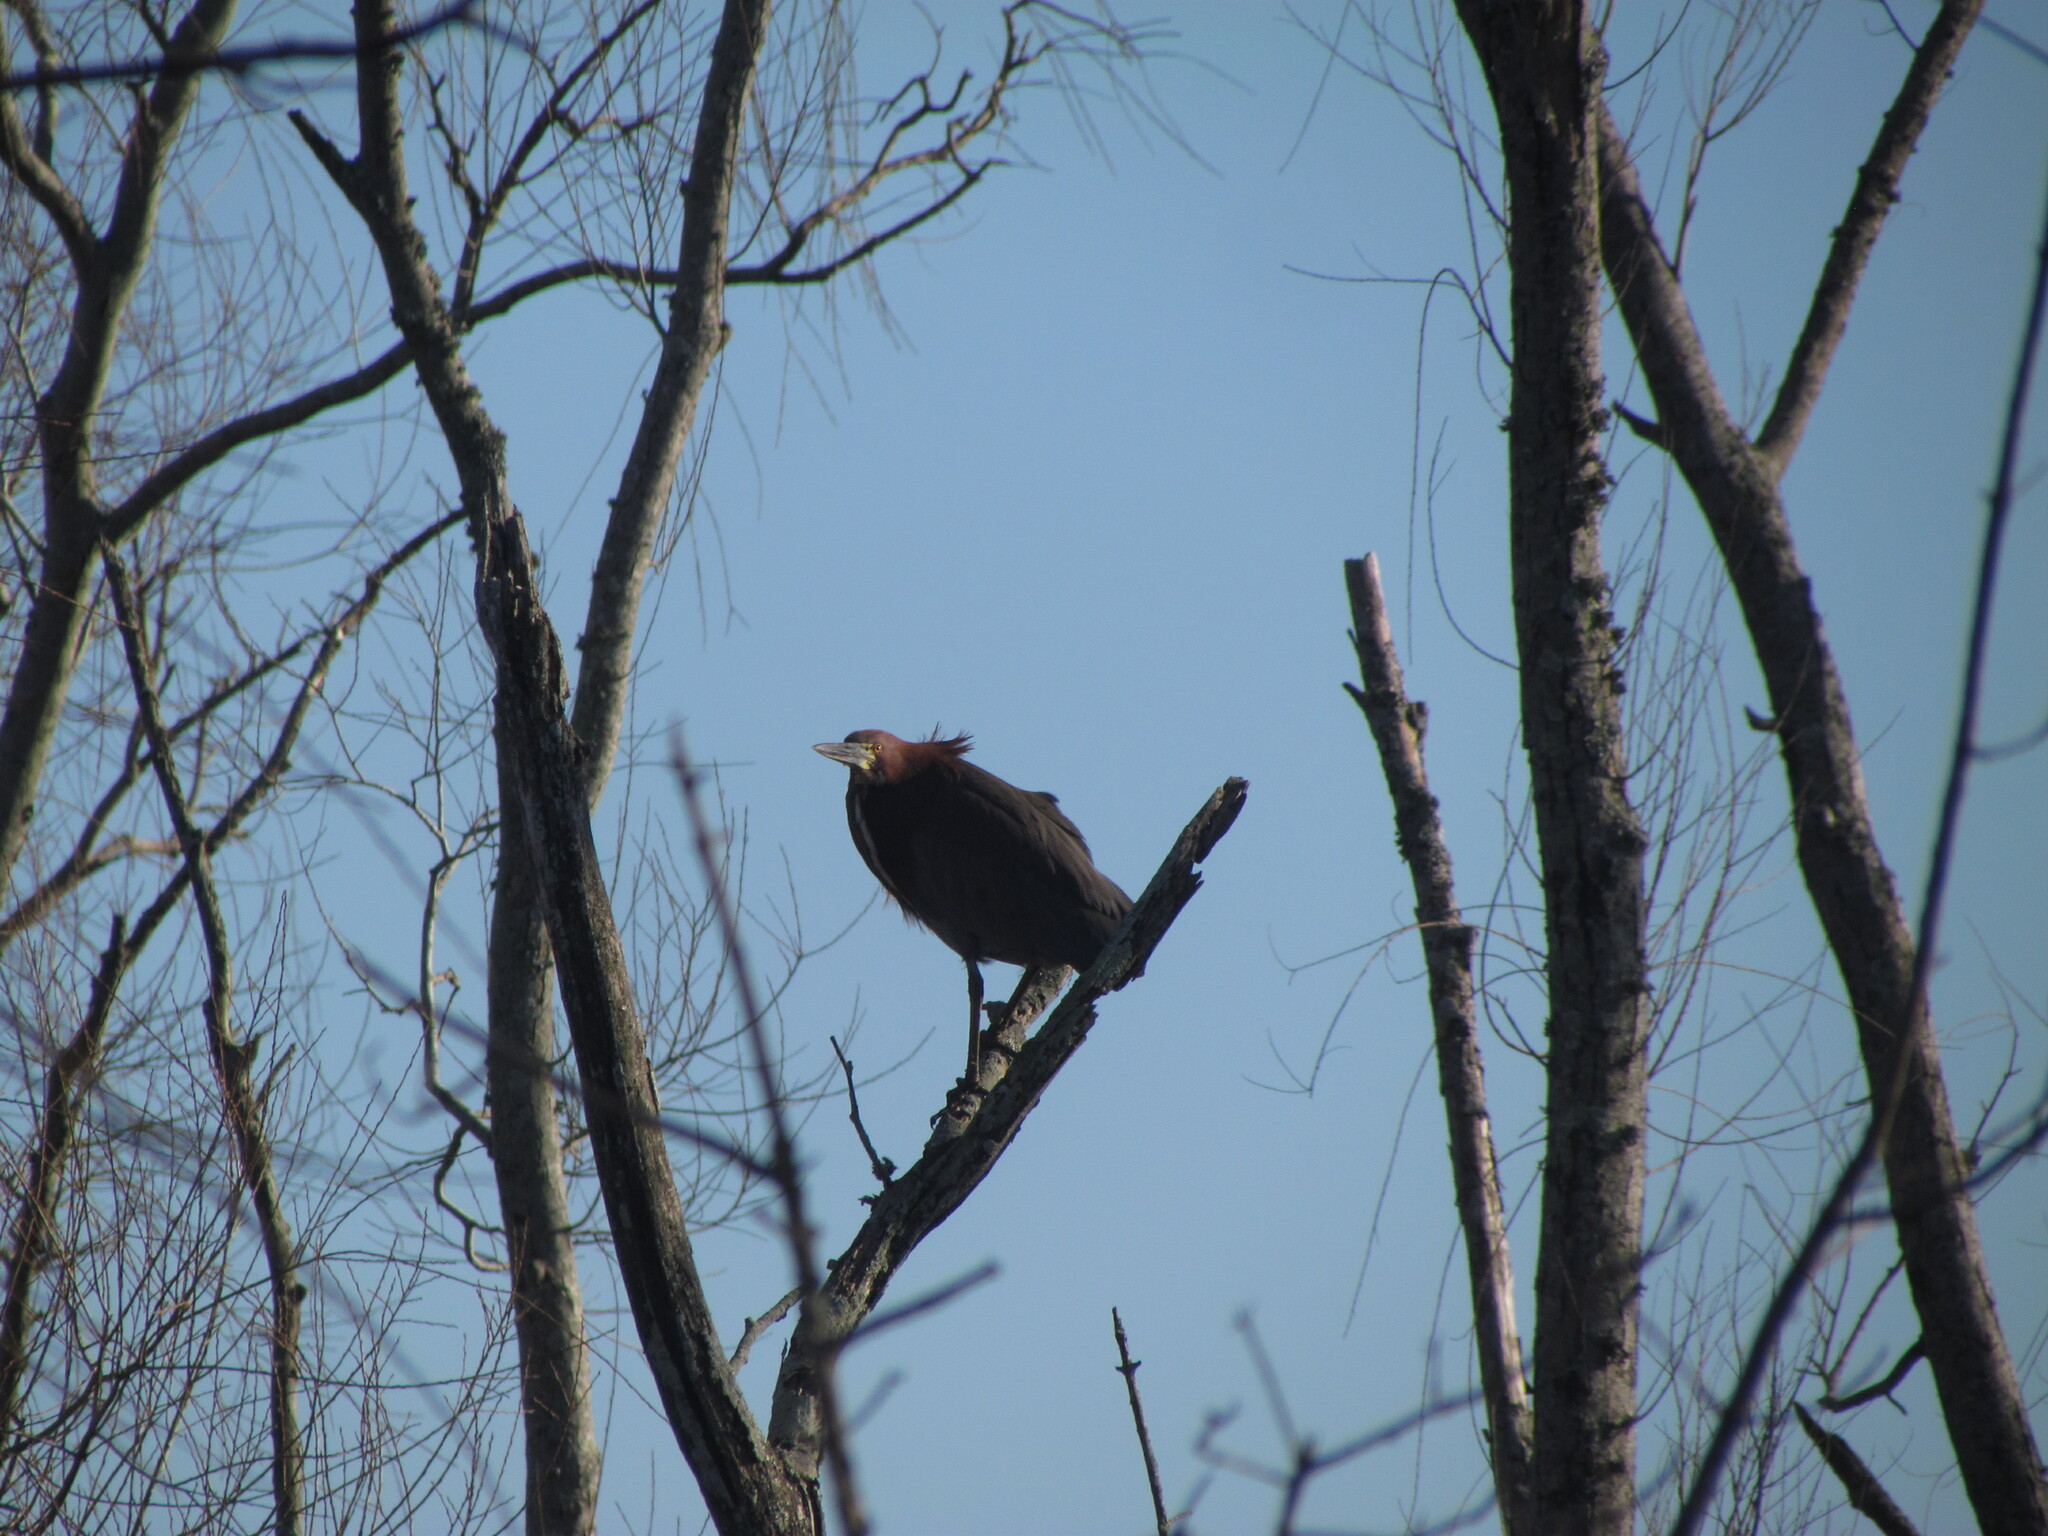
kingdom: Animalia
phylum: Chordata
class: Aves
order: Pelecaniformes
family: Ardeidae
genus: Tigrisoma
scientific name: Tigrisoma lineatum
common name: Rufescent tiger-heron
